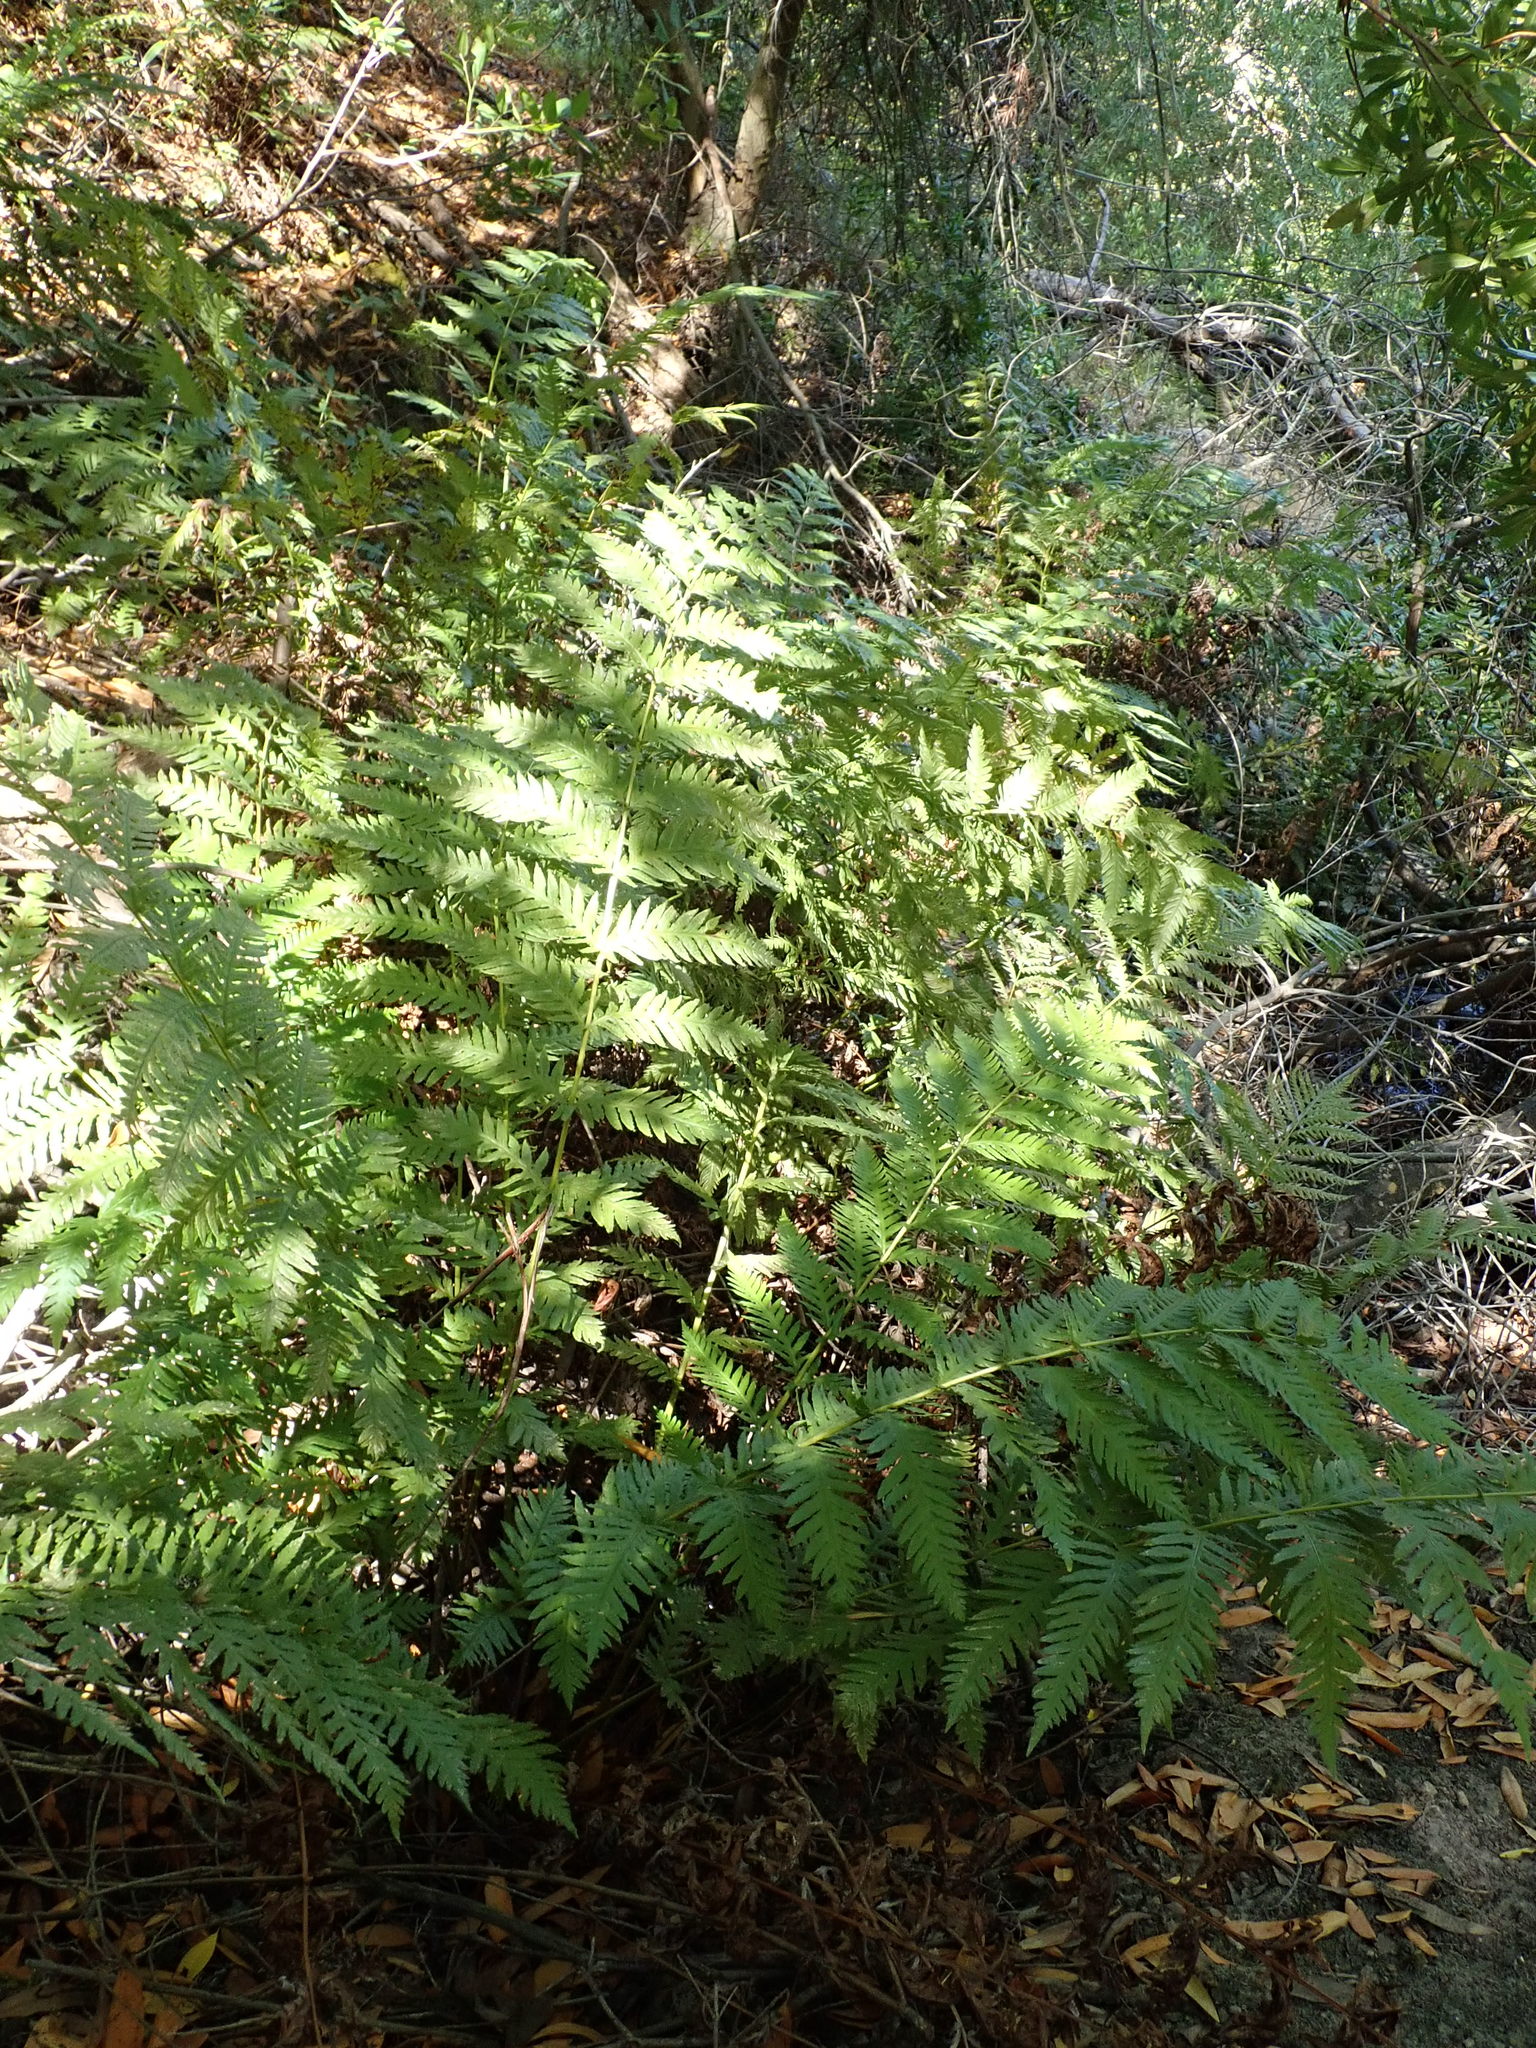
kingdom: Plantae
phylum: Tracheophyta
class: Polypodiopsida
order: Polypodiales
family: Blechnaceae
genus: Woodwardia
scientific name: Woodwardia fimbriata
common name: Giant chain fern
